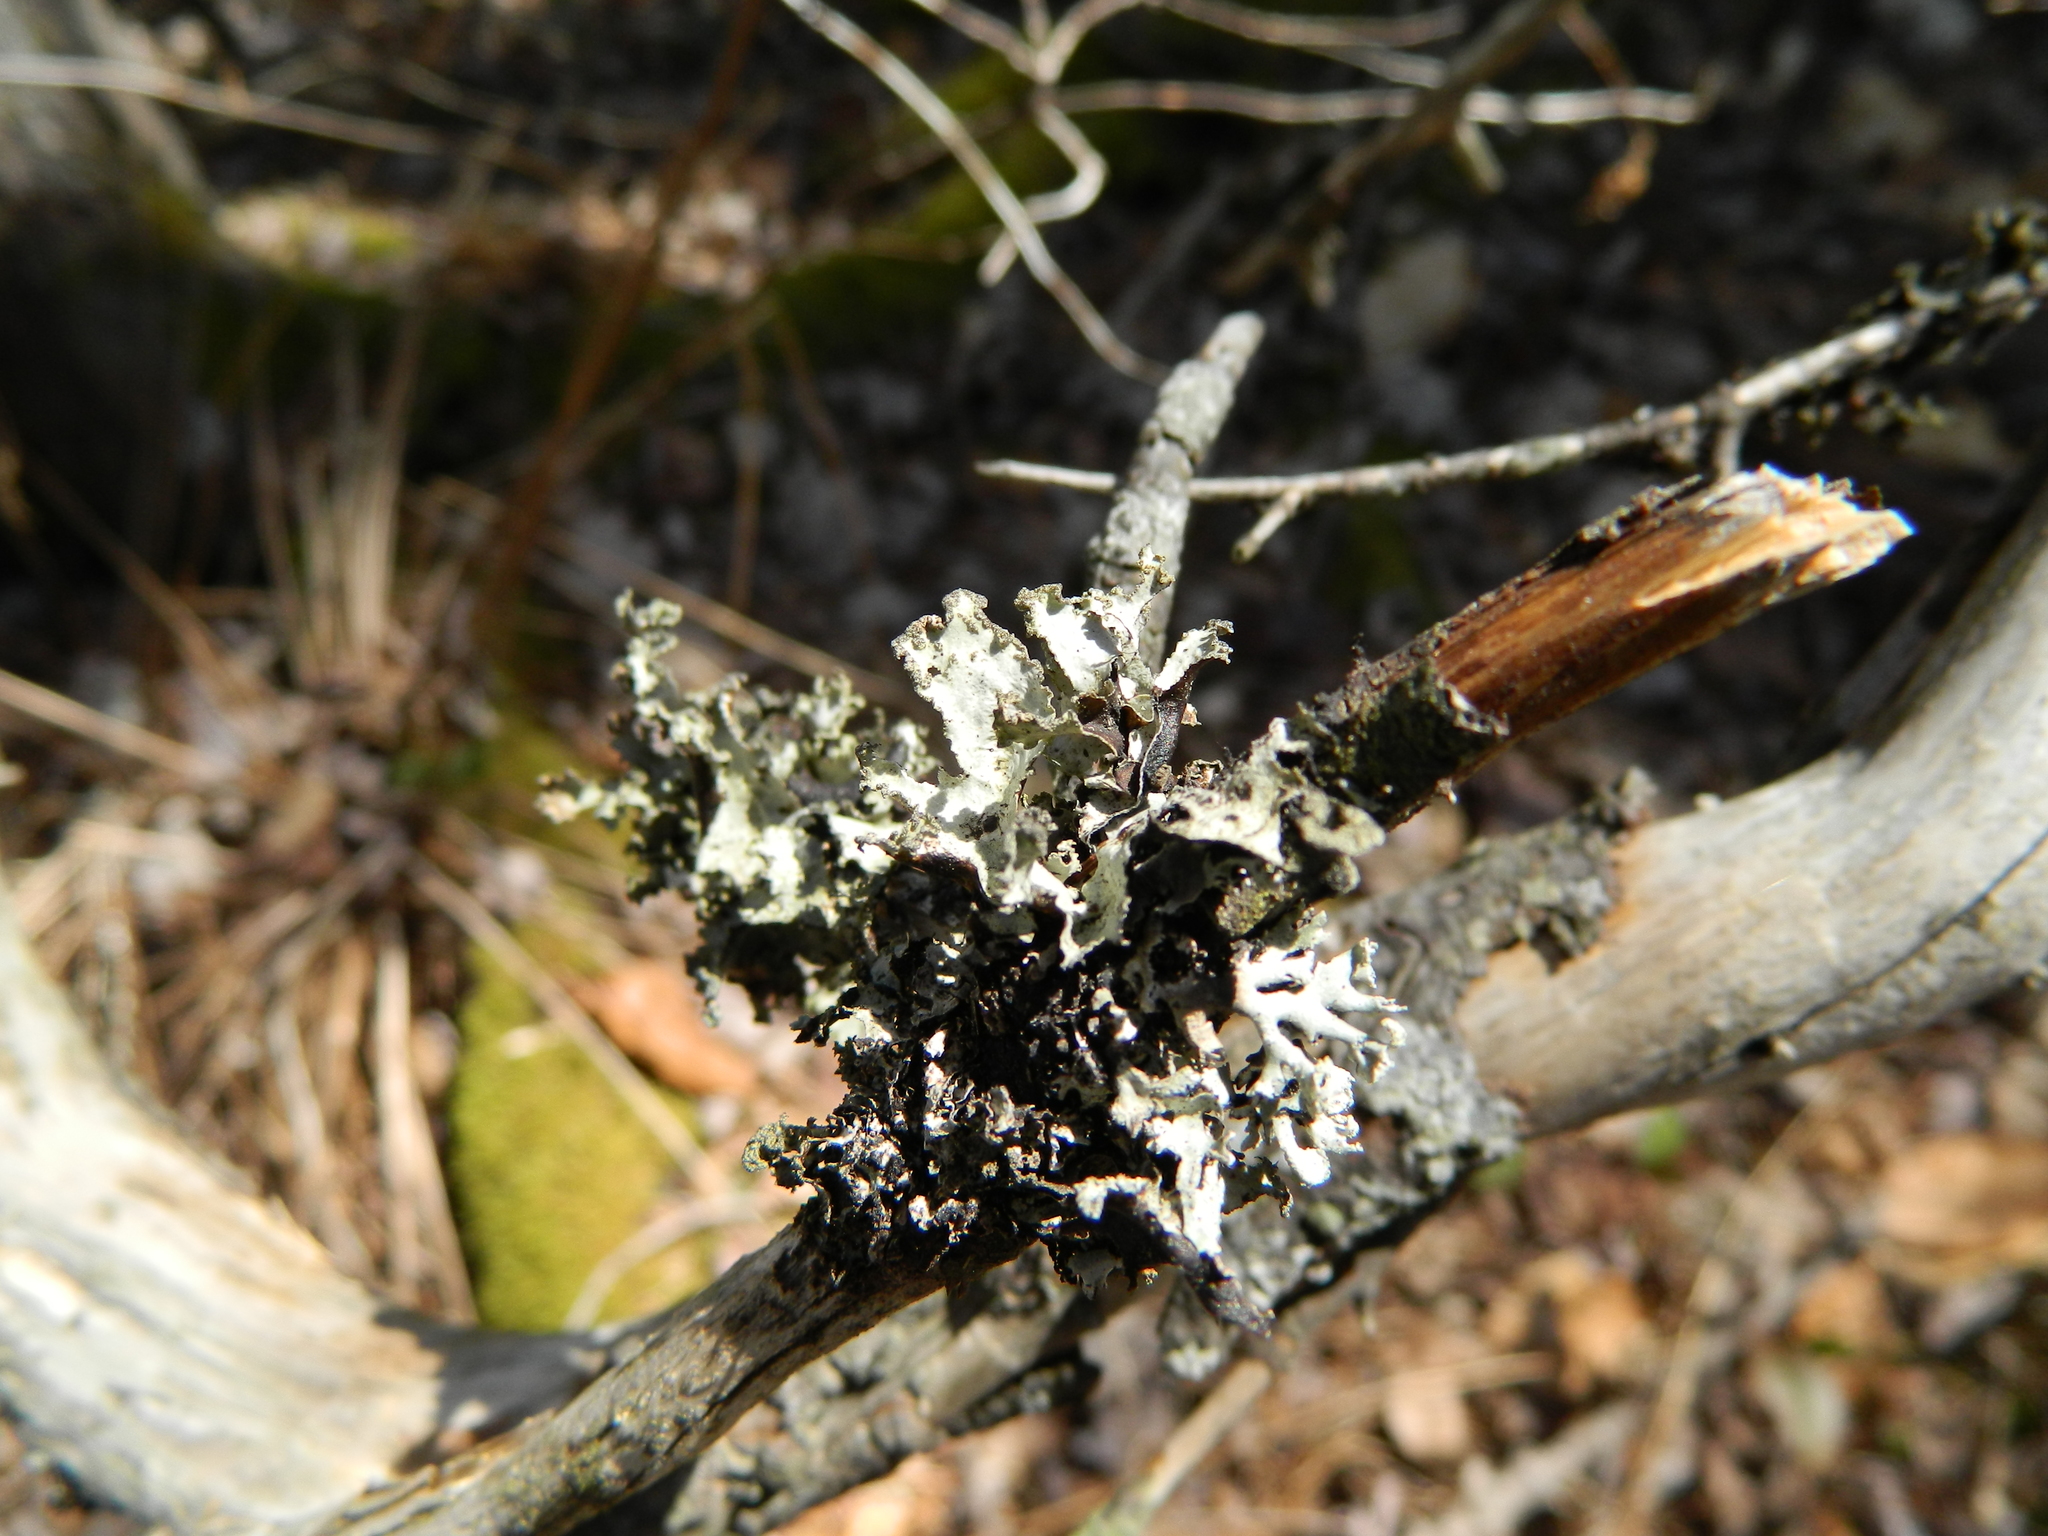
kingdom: Fungi
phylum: Ascomycota
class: Lecanoromycetes
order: Lecanorales
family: Parmeliaceae
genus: Platismatia
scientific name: Platismatia glauca
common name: Varied rag lichen
